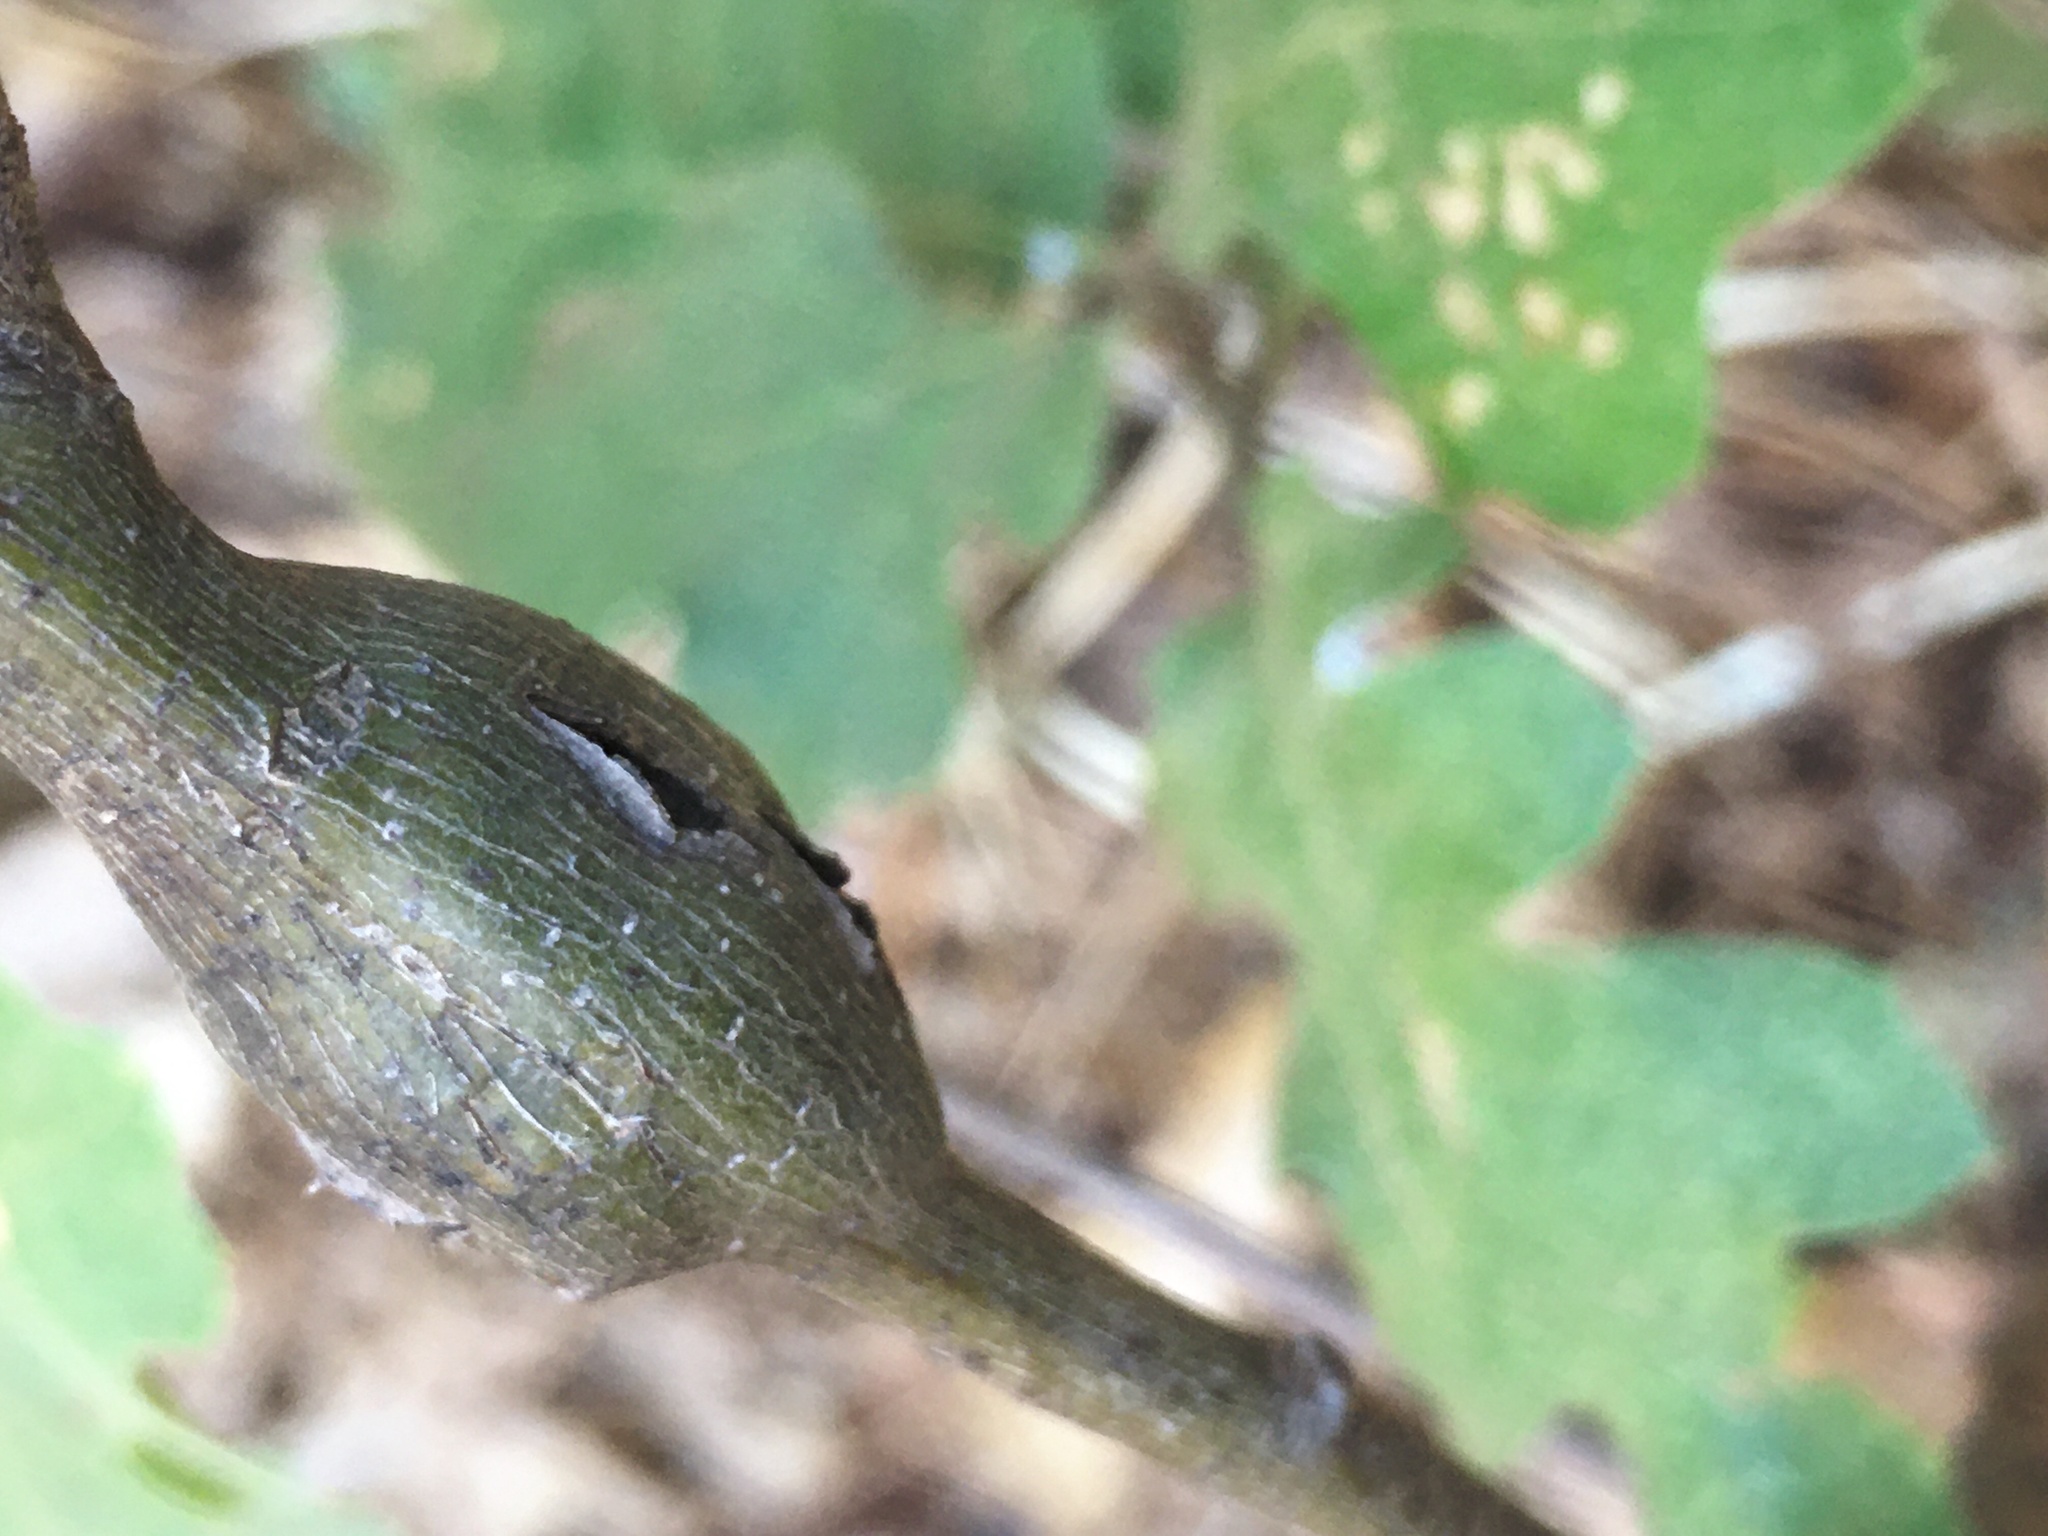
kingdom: Animalia
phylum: Arthropoda
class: Insecta
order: Hymenoptera
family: Cynipidae
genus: Callirhytis
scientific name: Callirhytis
